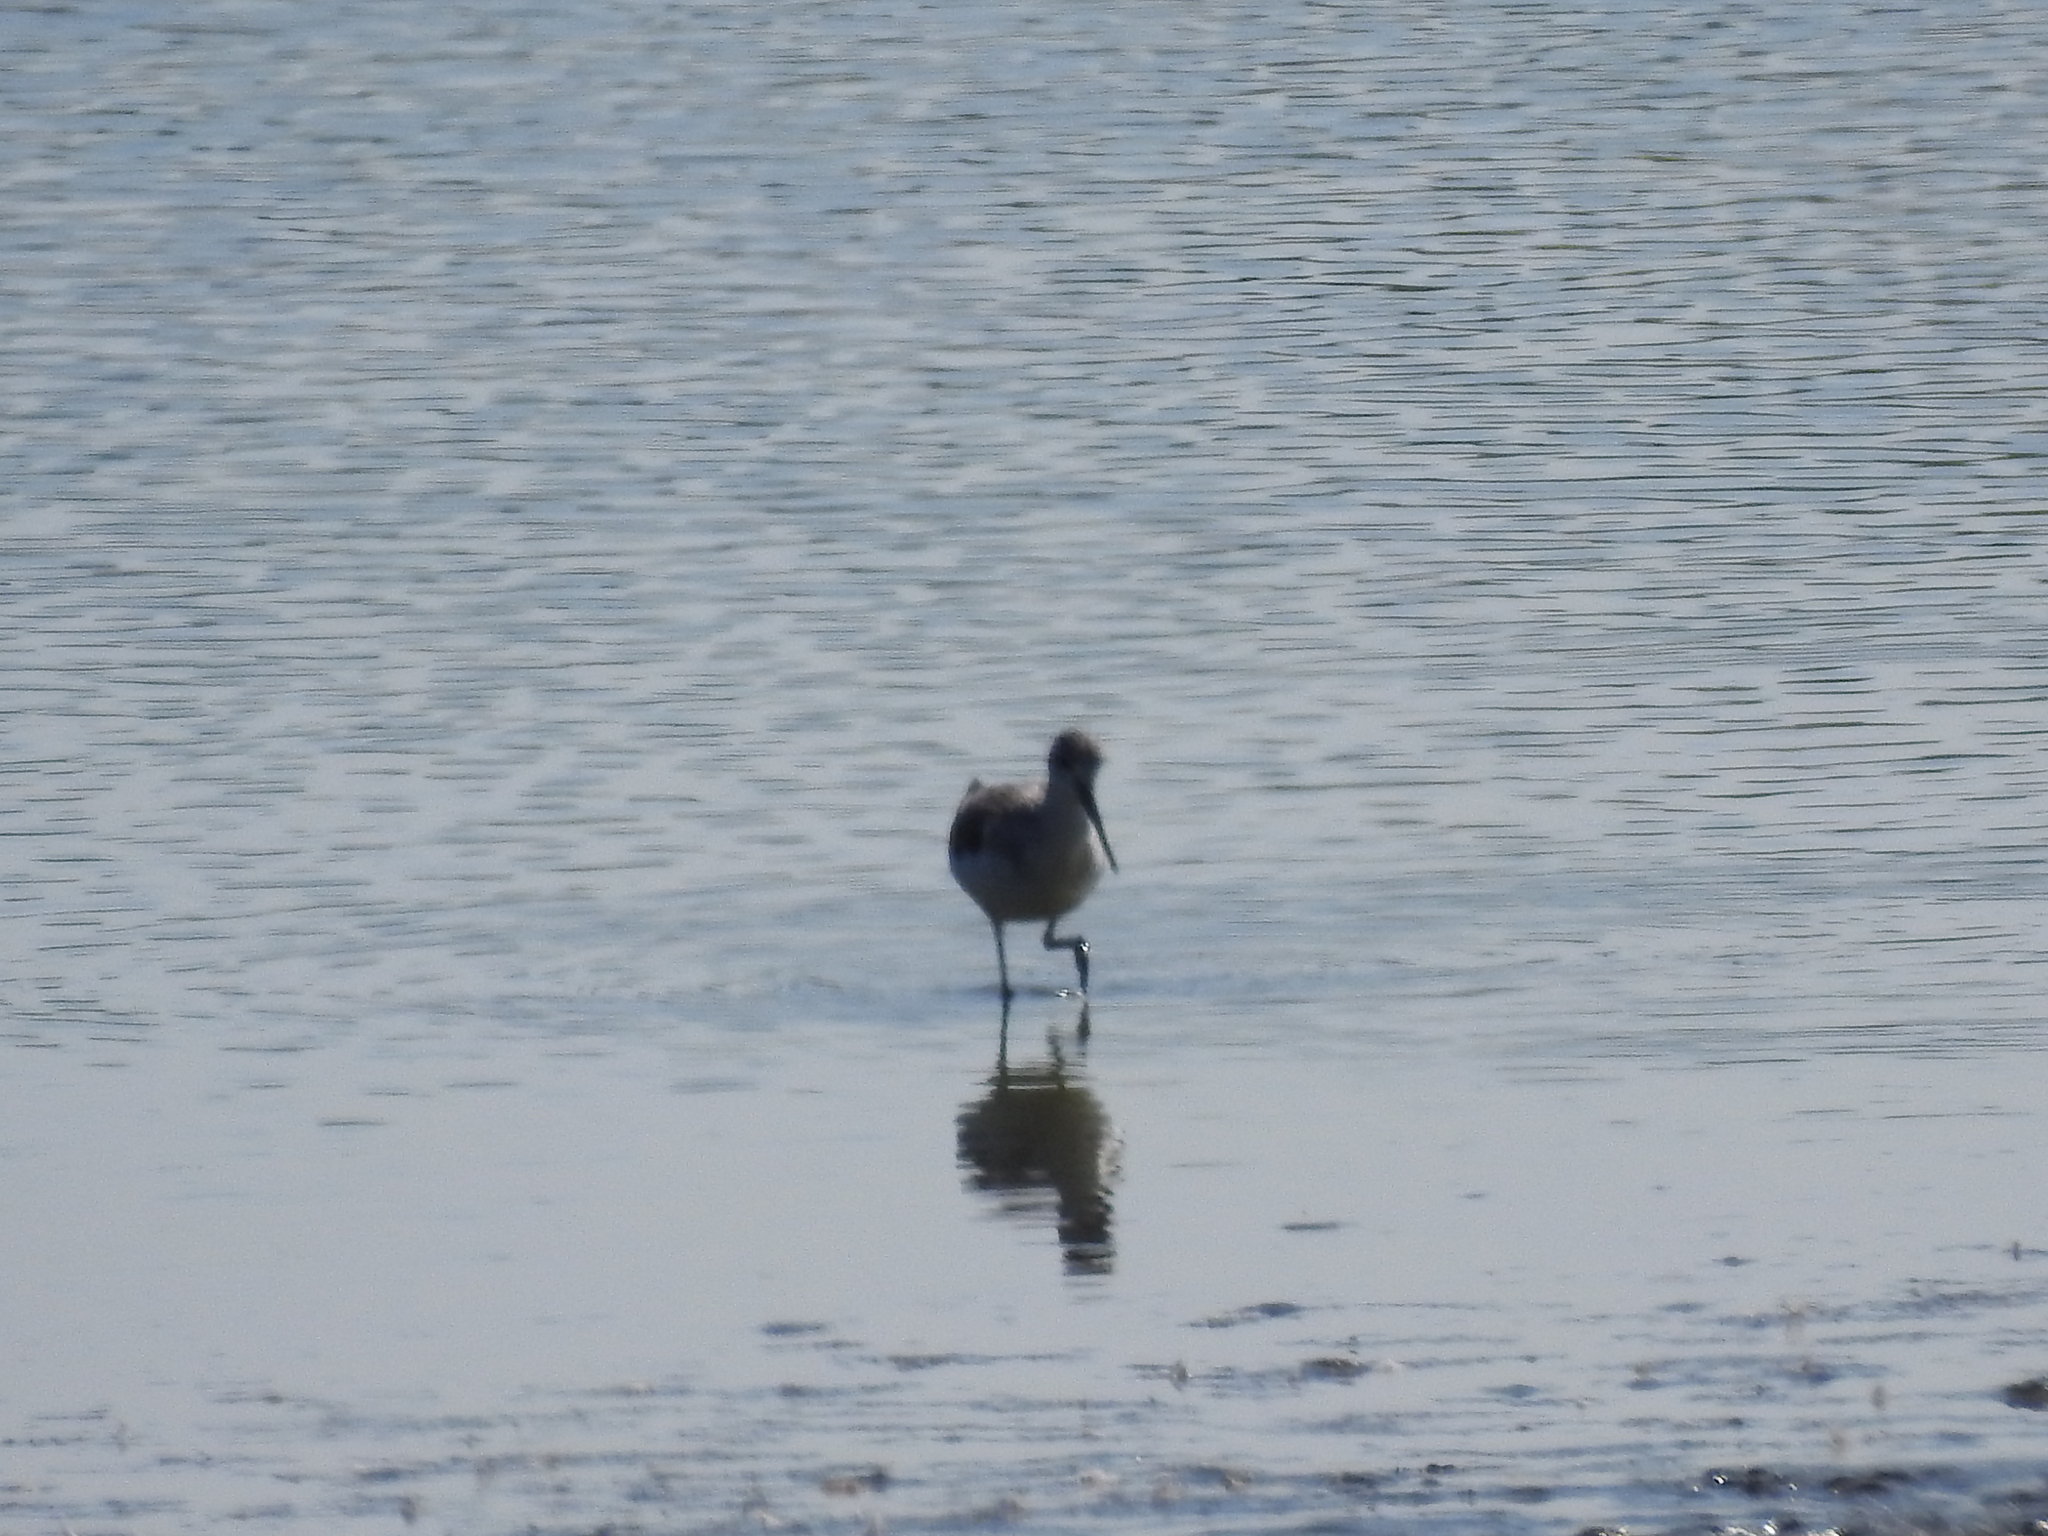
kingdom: Animalia
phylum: Chordata
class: Aves
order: Charadriiformes
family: Scolopacidae
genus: Tringa
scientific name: Tringa nebularia
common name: Common greenshank
